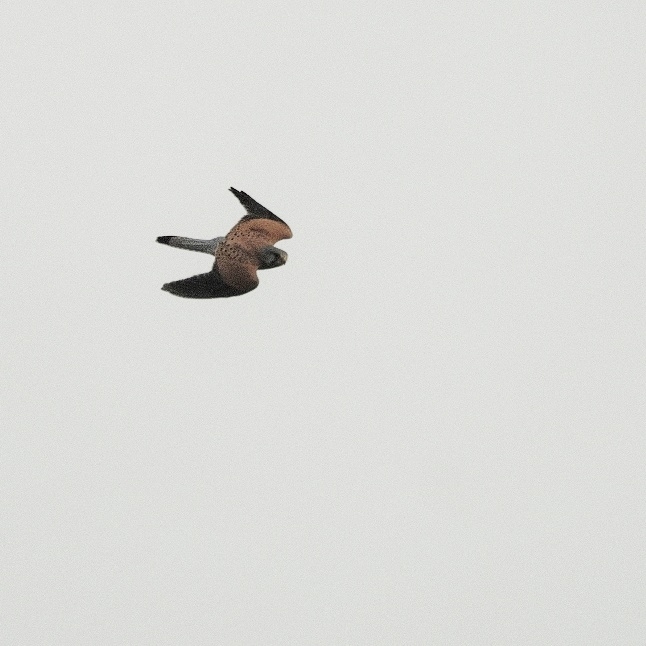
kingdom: Animalia
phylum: Chordata
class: Aves
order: Falconiformes
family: Falconidae
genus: Falco
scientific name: Falco tinnunculus
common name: Common kestrel
